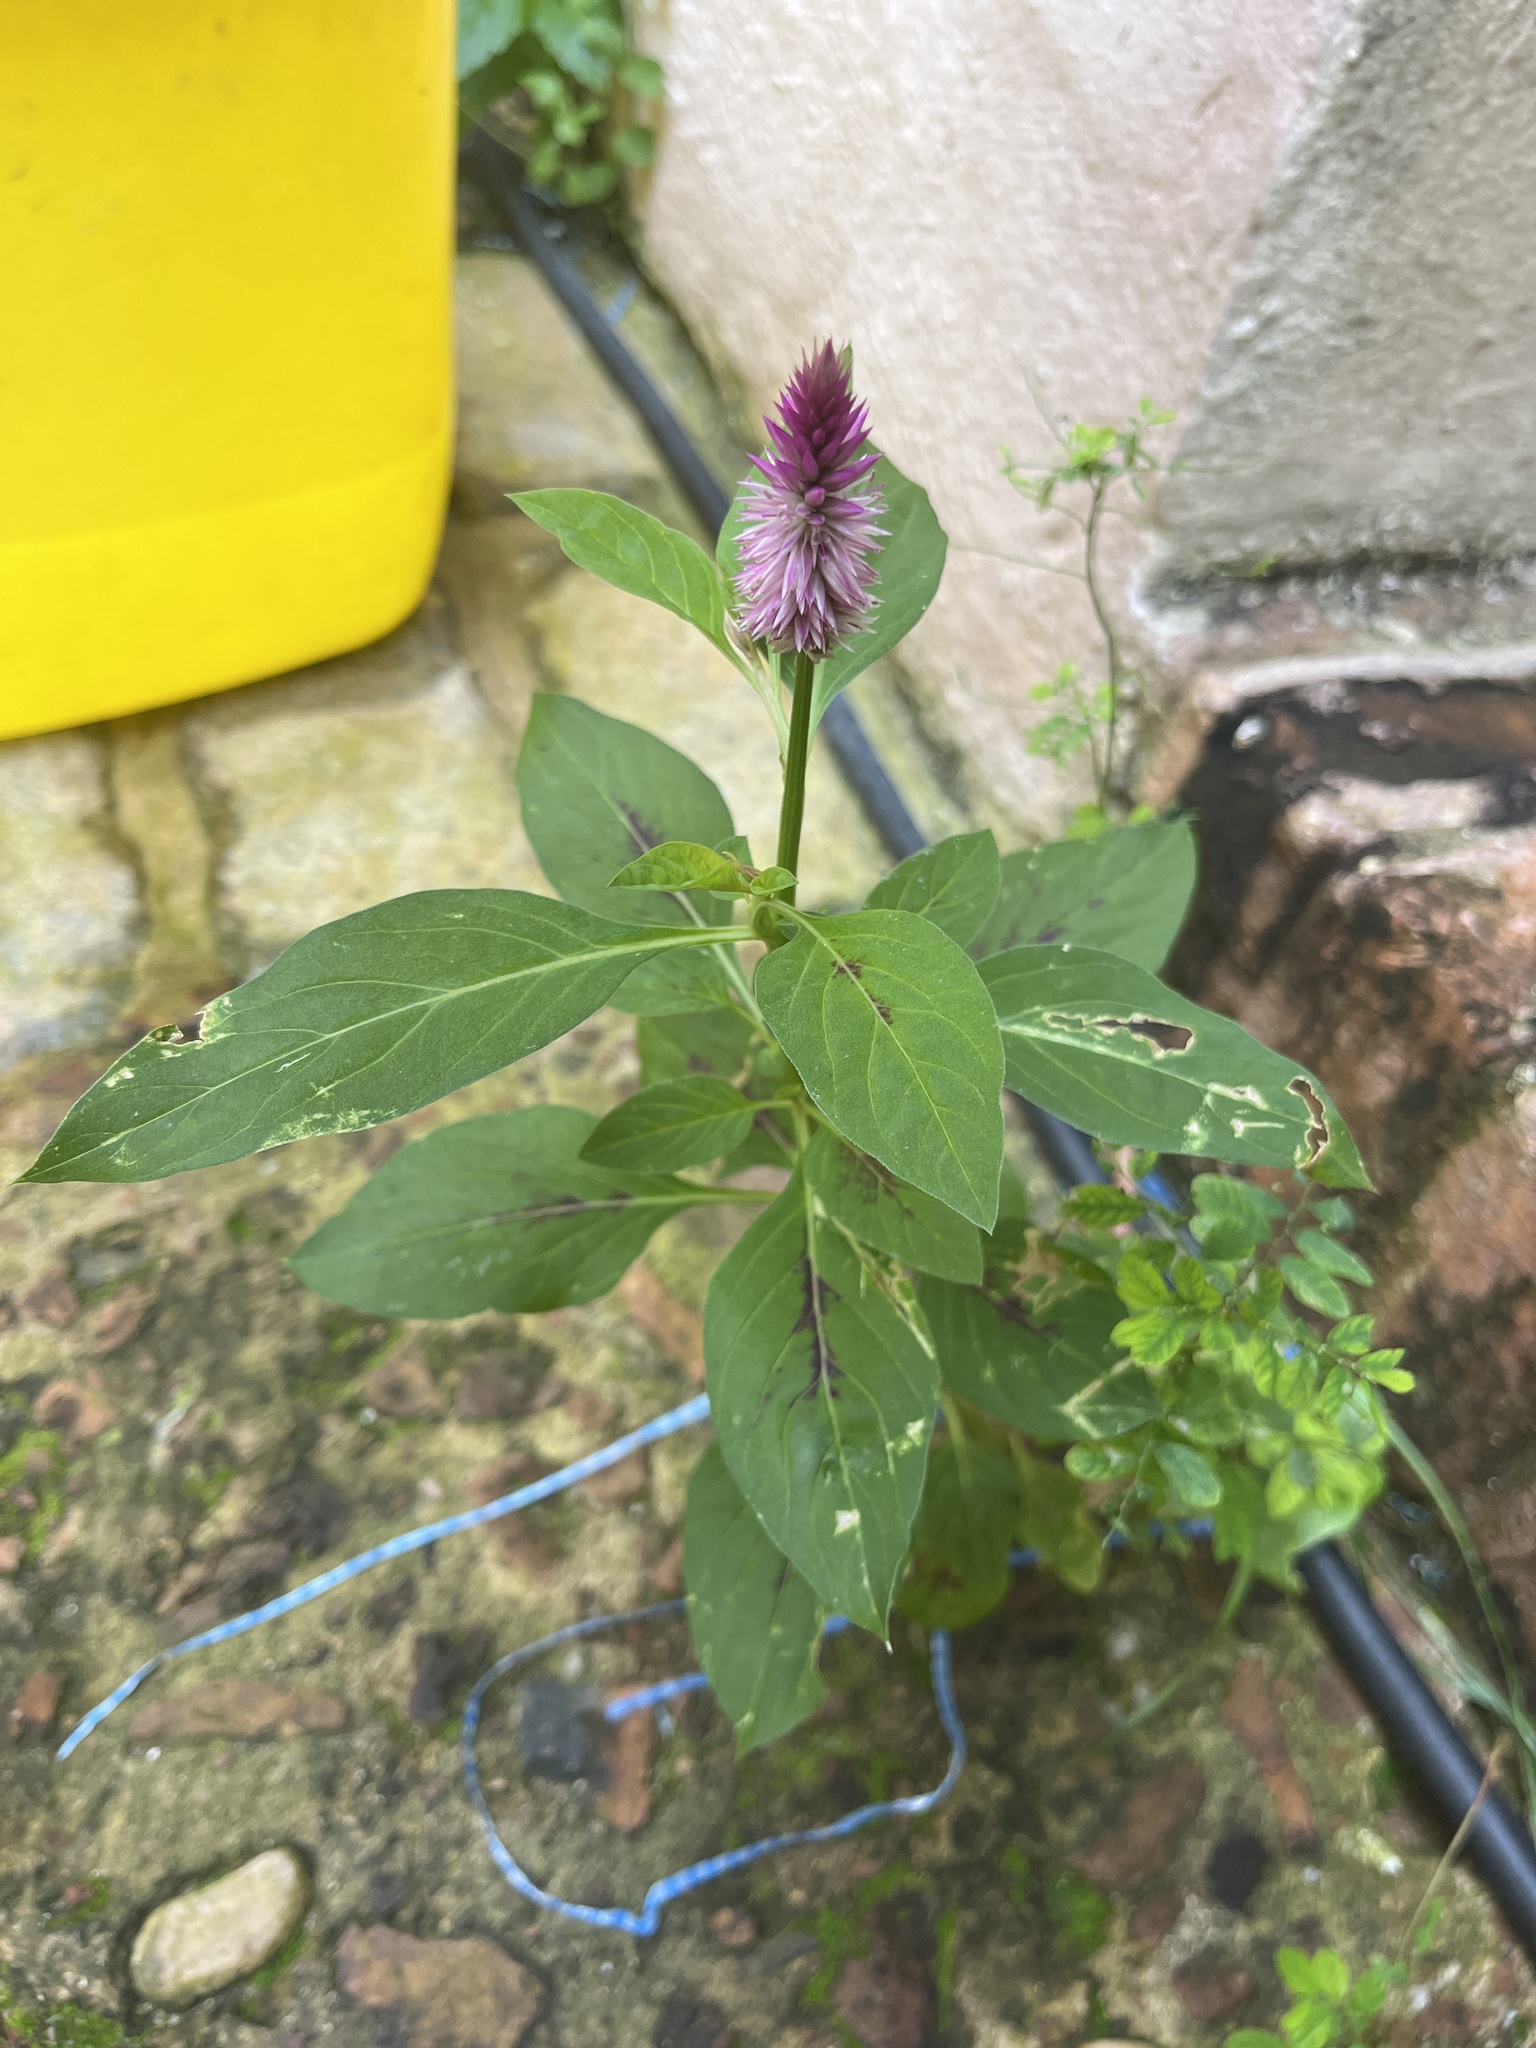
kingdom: Plantae
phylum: Tracheophyta
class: Magnoliopsida
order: Caryophyllales
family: Amaranthaceae
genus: Celosia
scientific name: Celosia argentea
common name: Feather cockscomb
